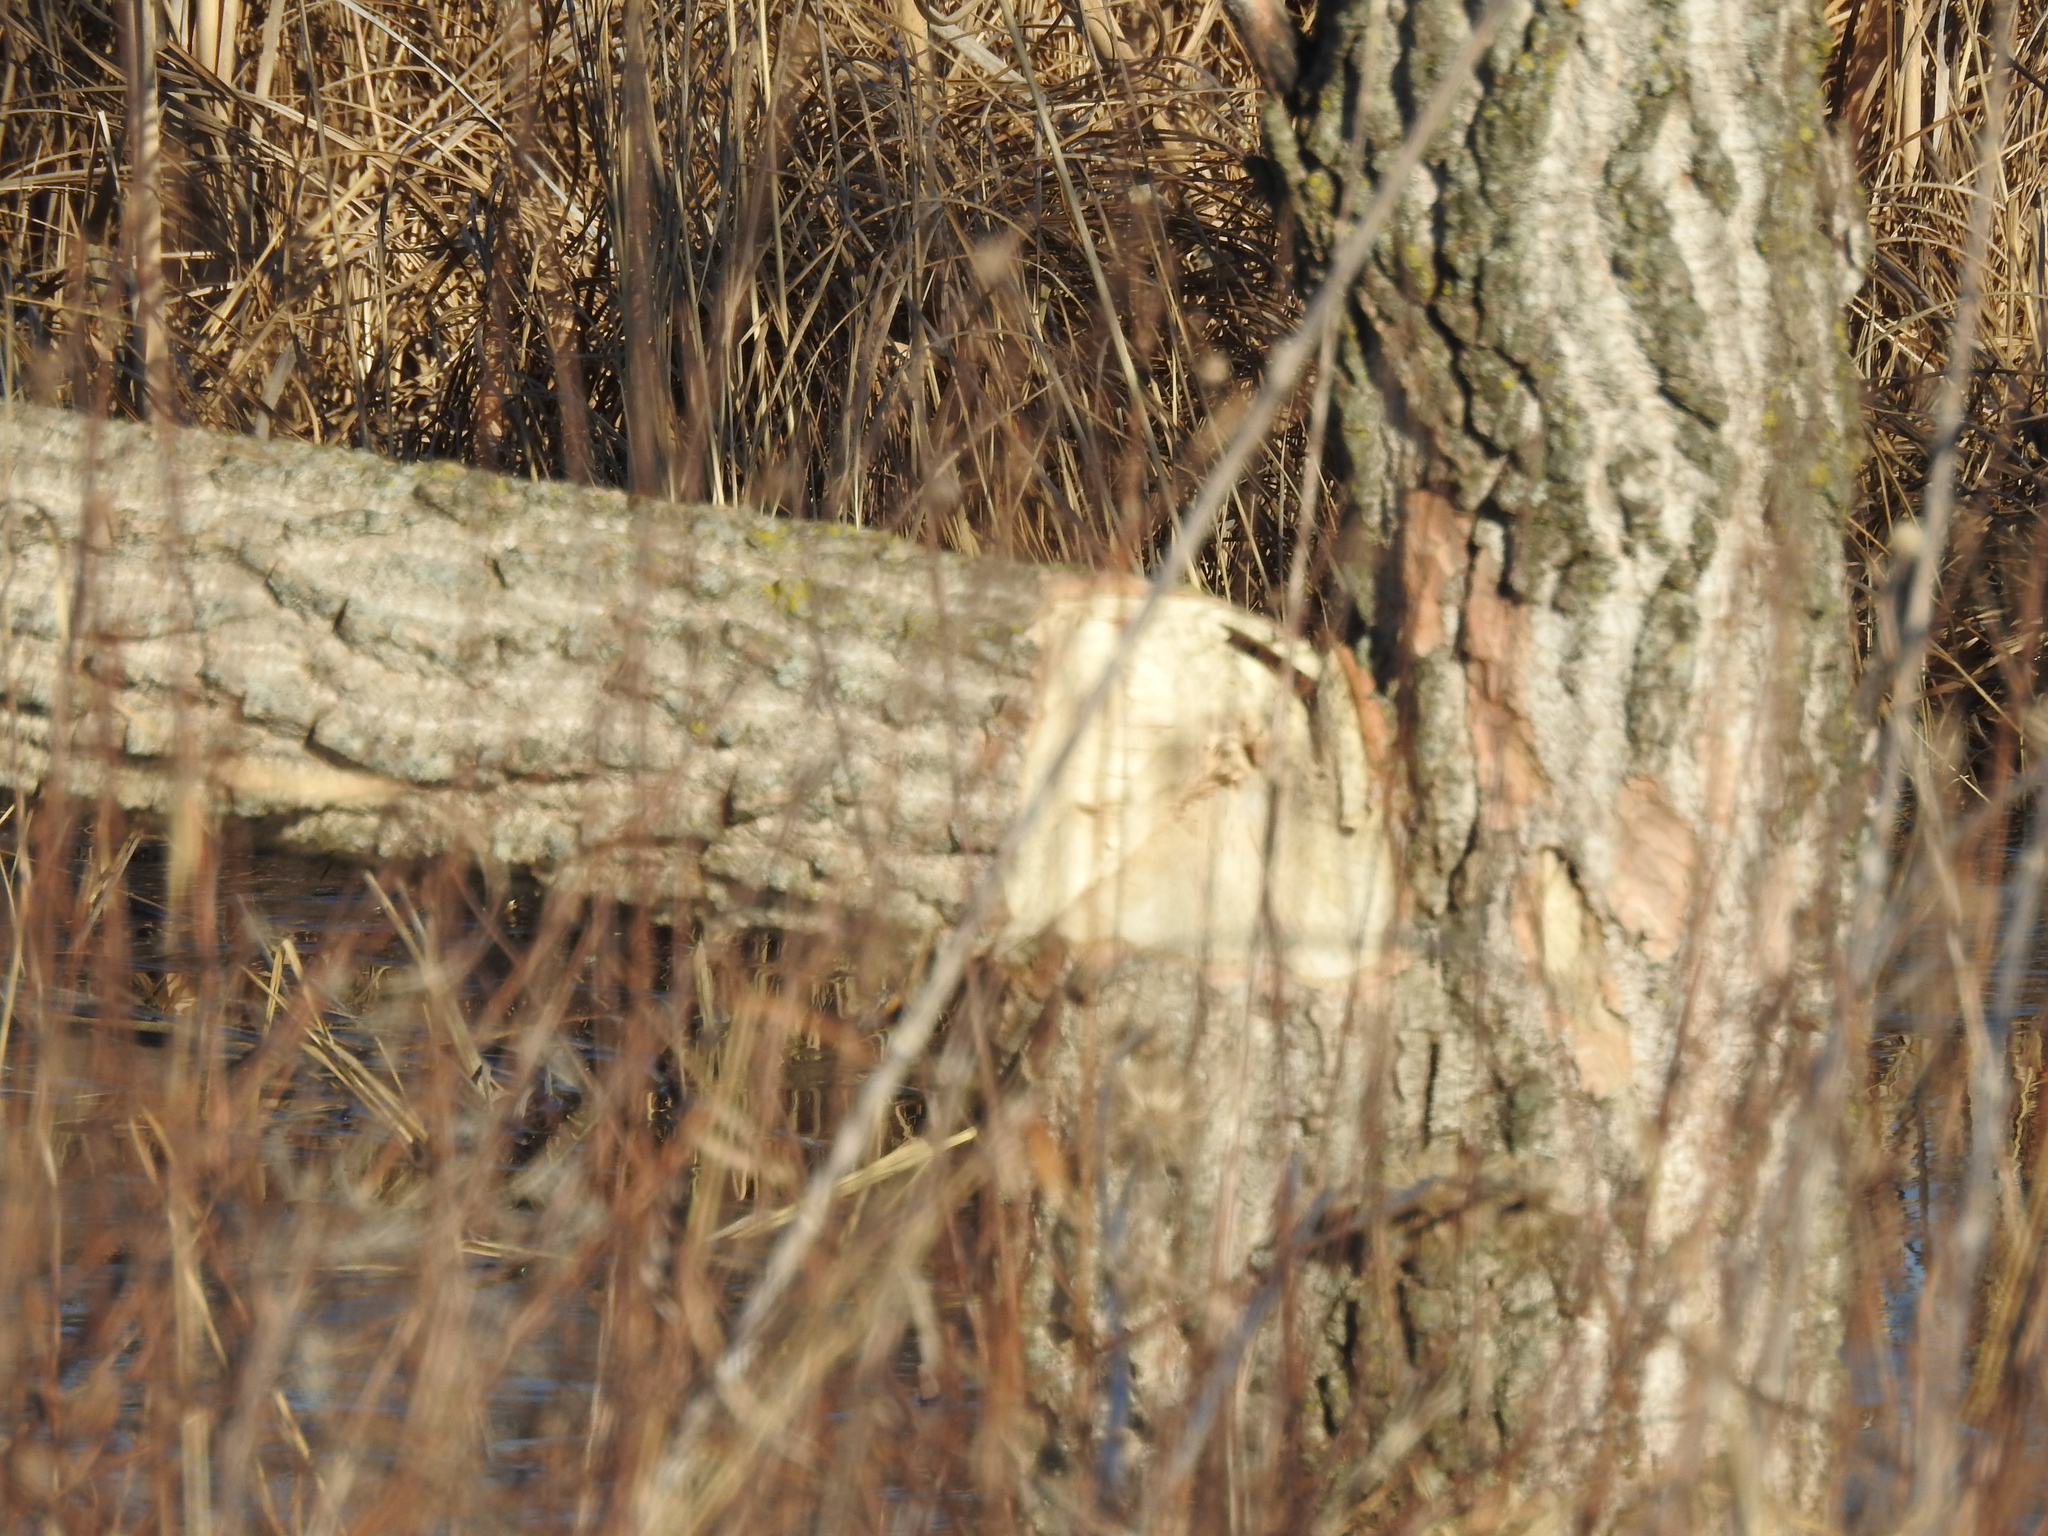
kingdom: Animalia
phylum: Chordata
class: Mammalia
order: Rodentia
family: Castoridae
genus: Castor
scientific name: Castor canadensis
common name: American beaver
